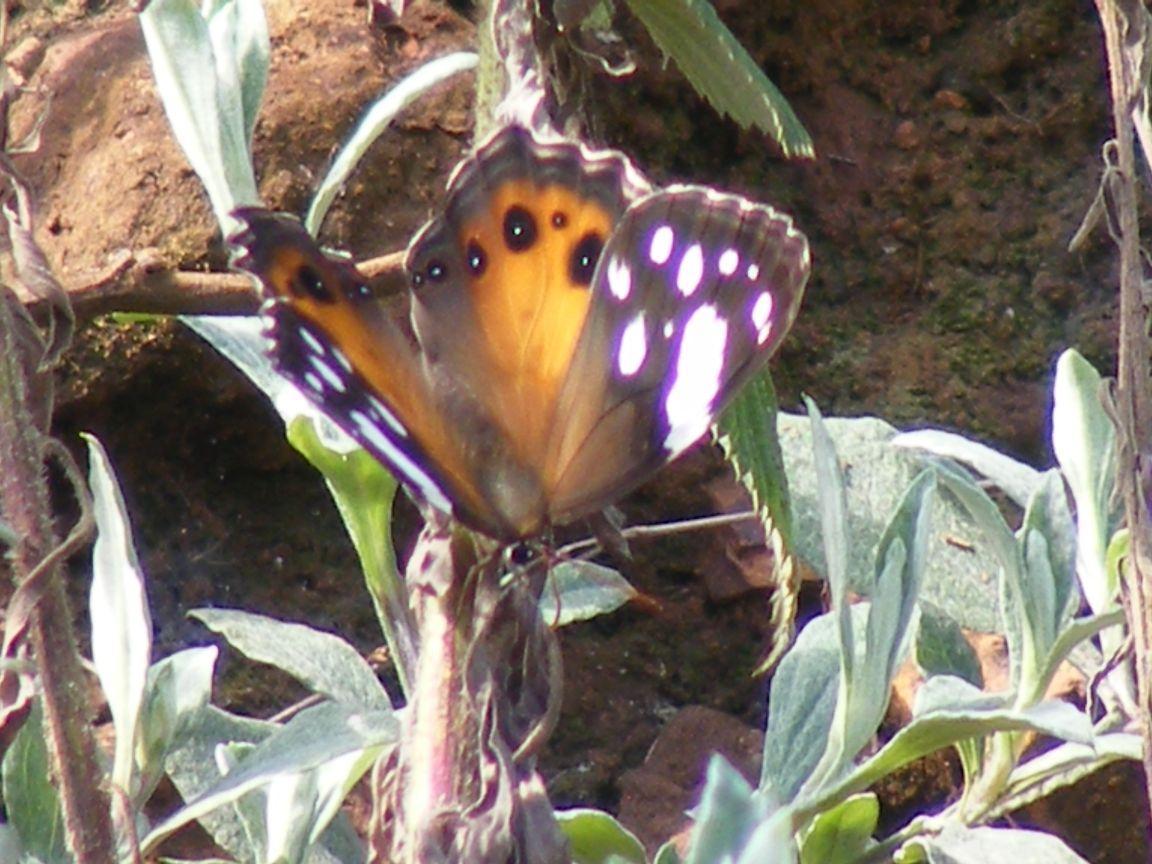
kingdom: Animalia
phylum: Arthropoda
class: Insecta
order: Lepidoptera
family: Nymphalidae
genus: Paralethe
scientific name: Paralethe dendrophilus
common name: Bush beauty
